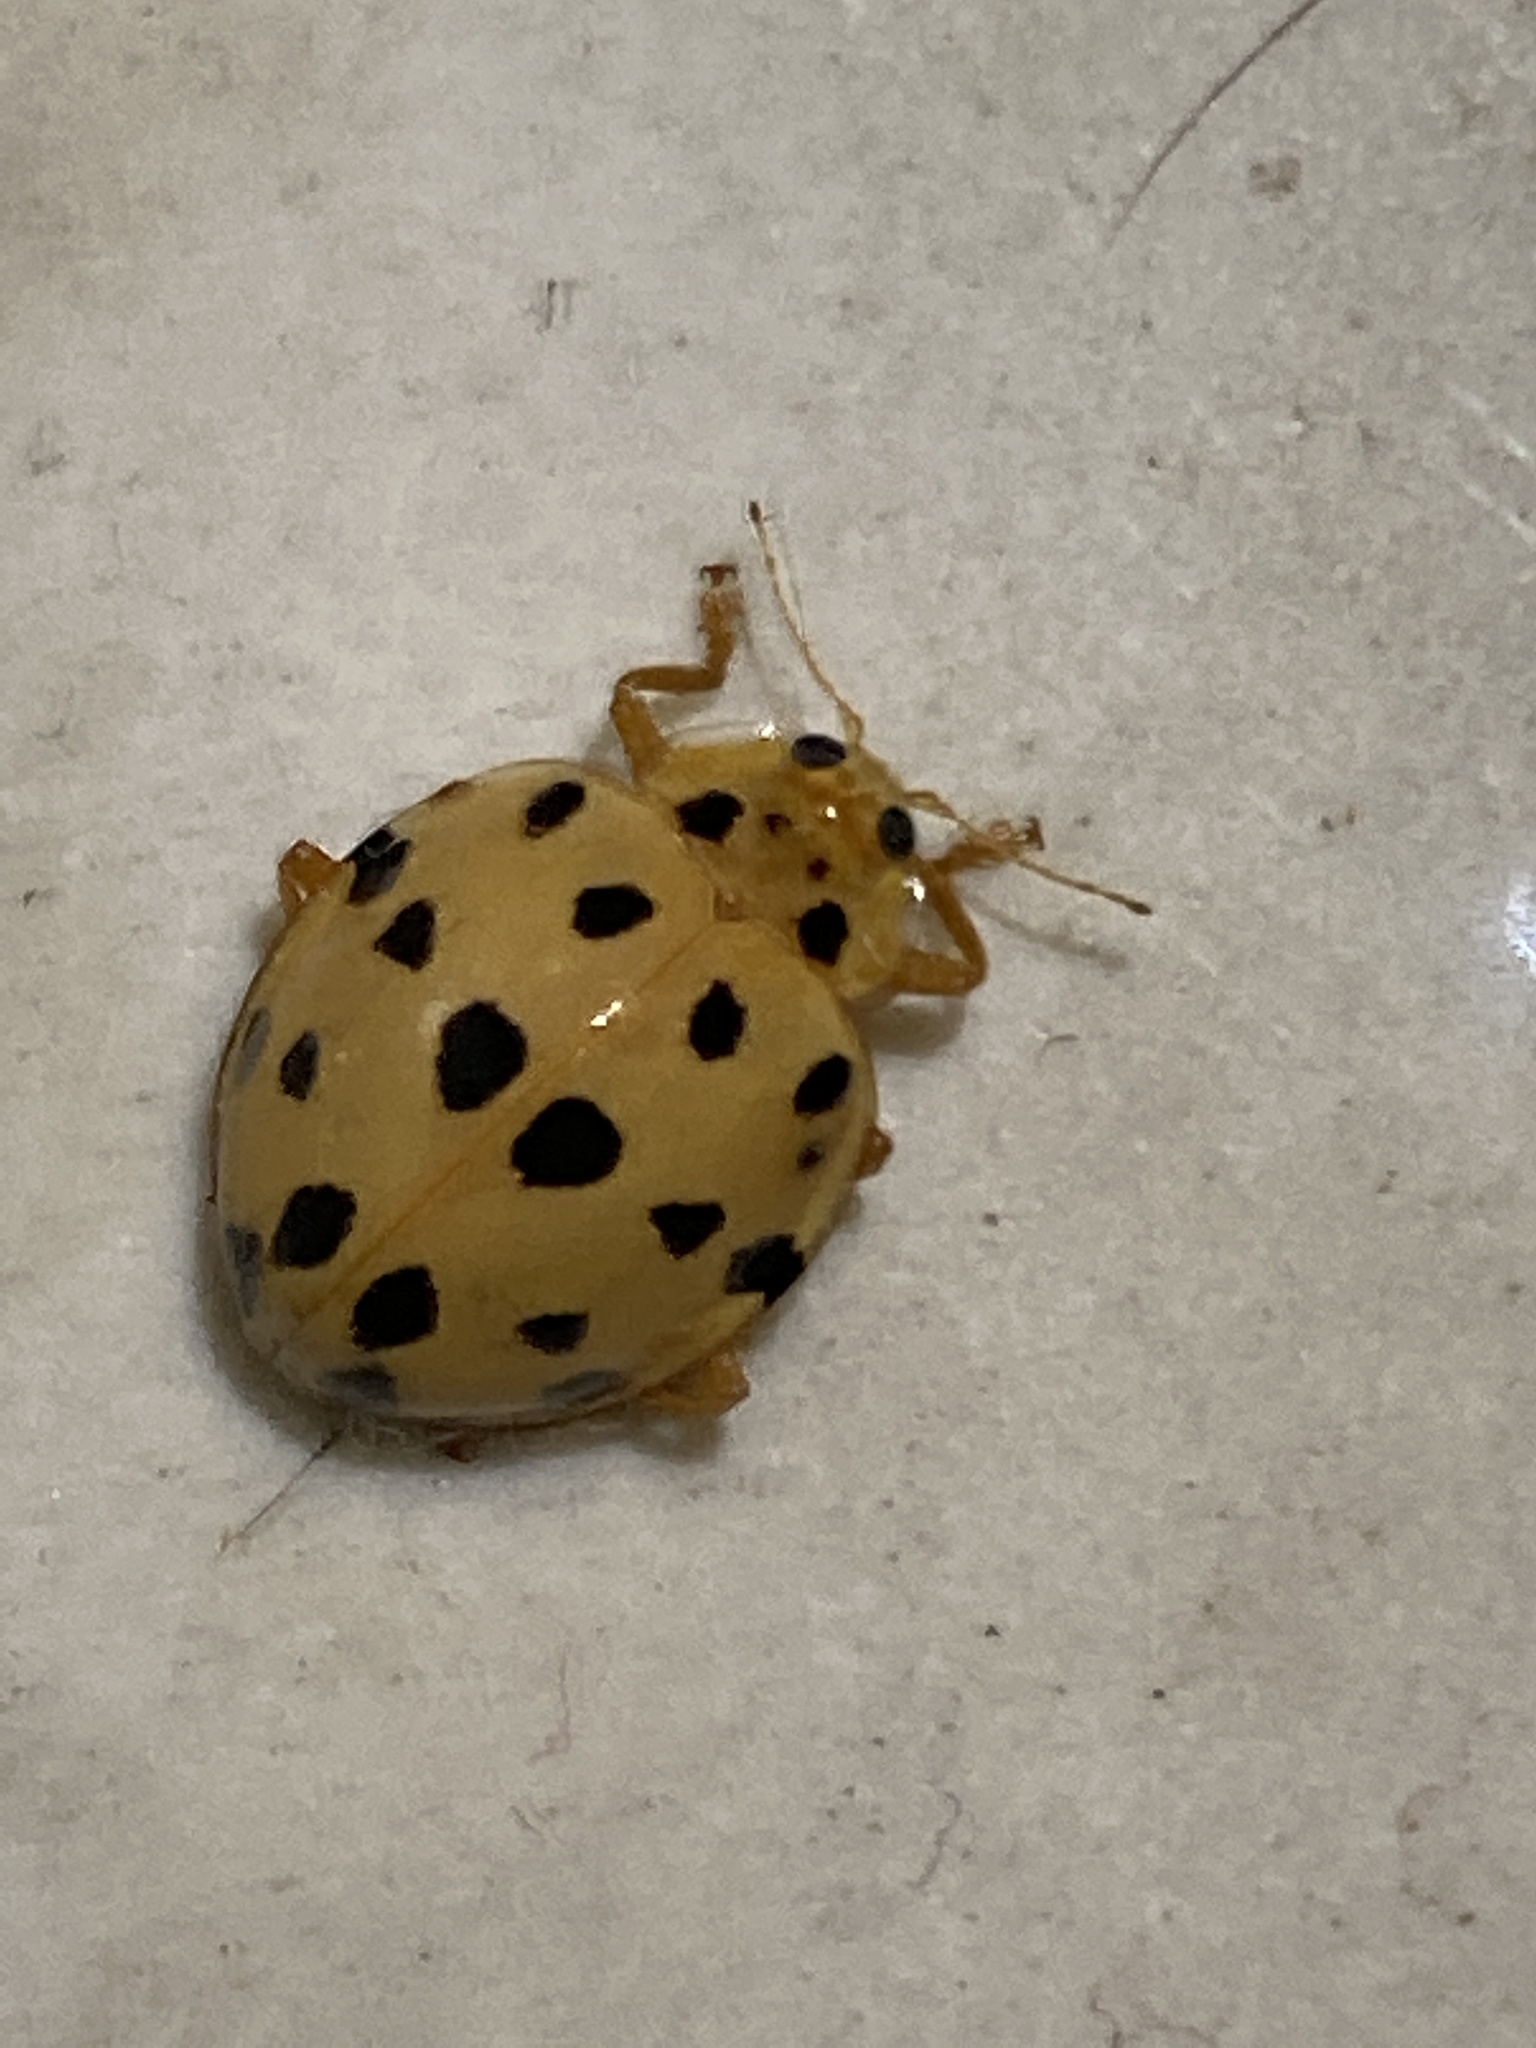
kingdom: Animalia
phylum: Arthropoda
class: Insecta
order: Coleoptera
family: Coccinellidae
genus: Neohalyzia
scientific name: Neohalyzia
